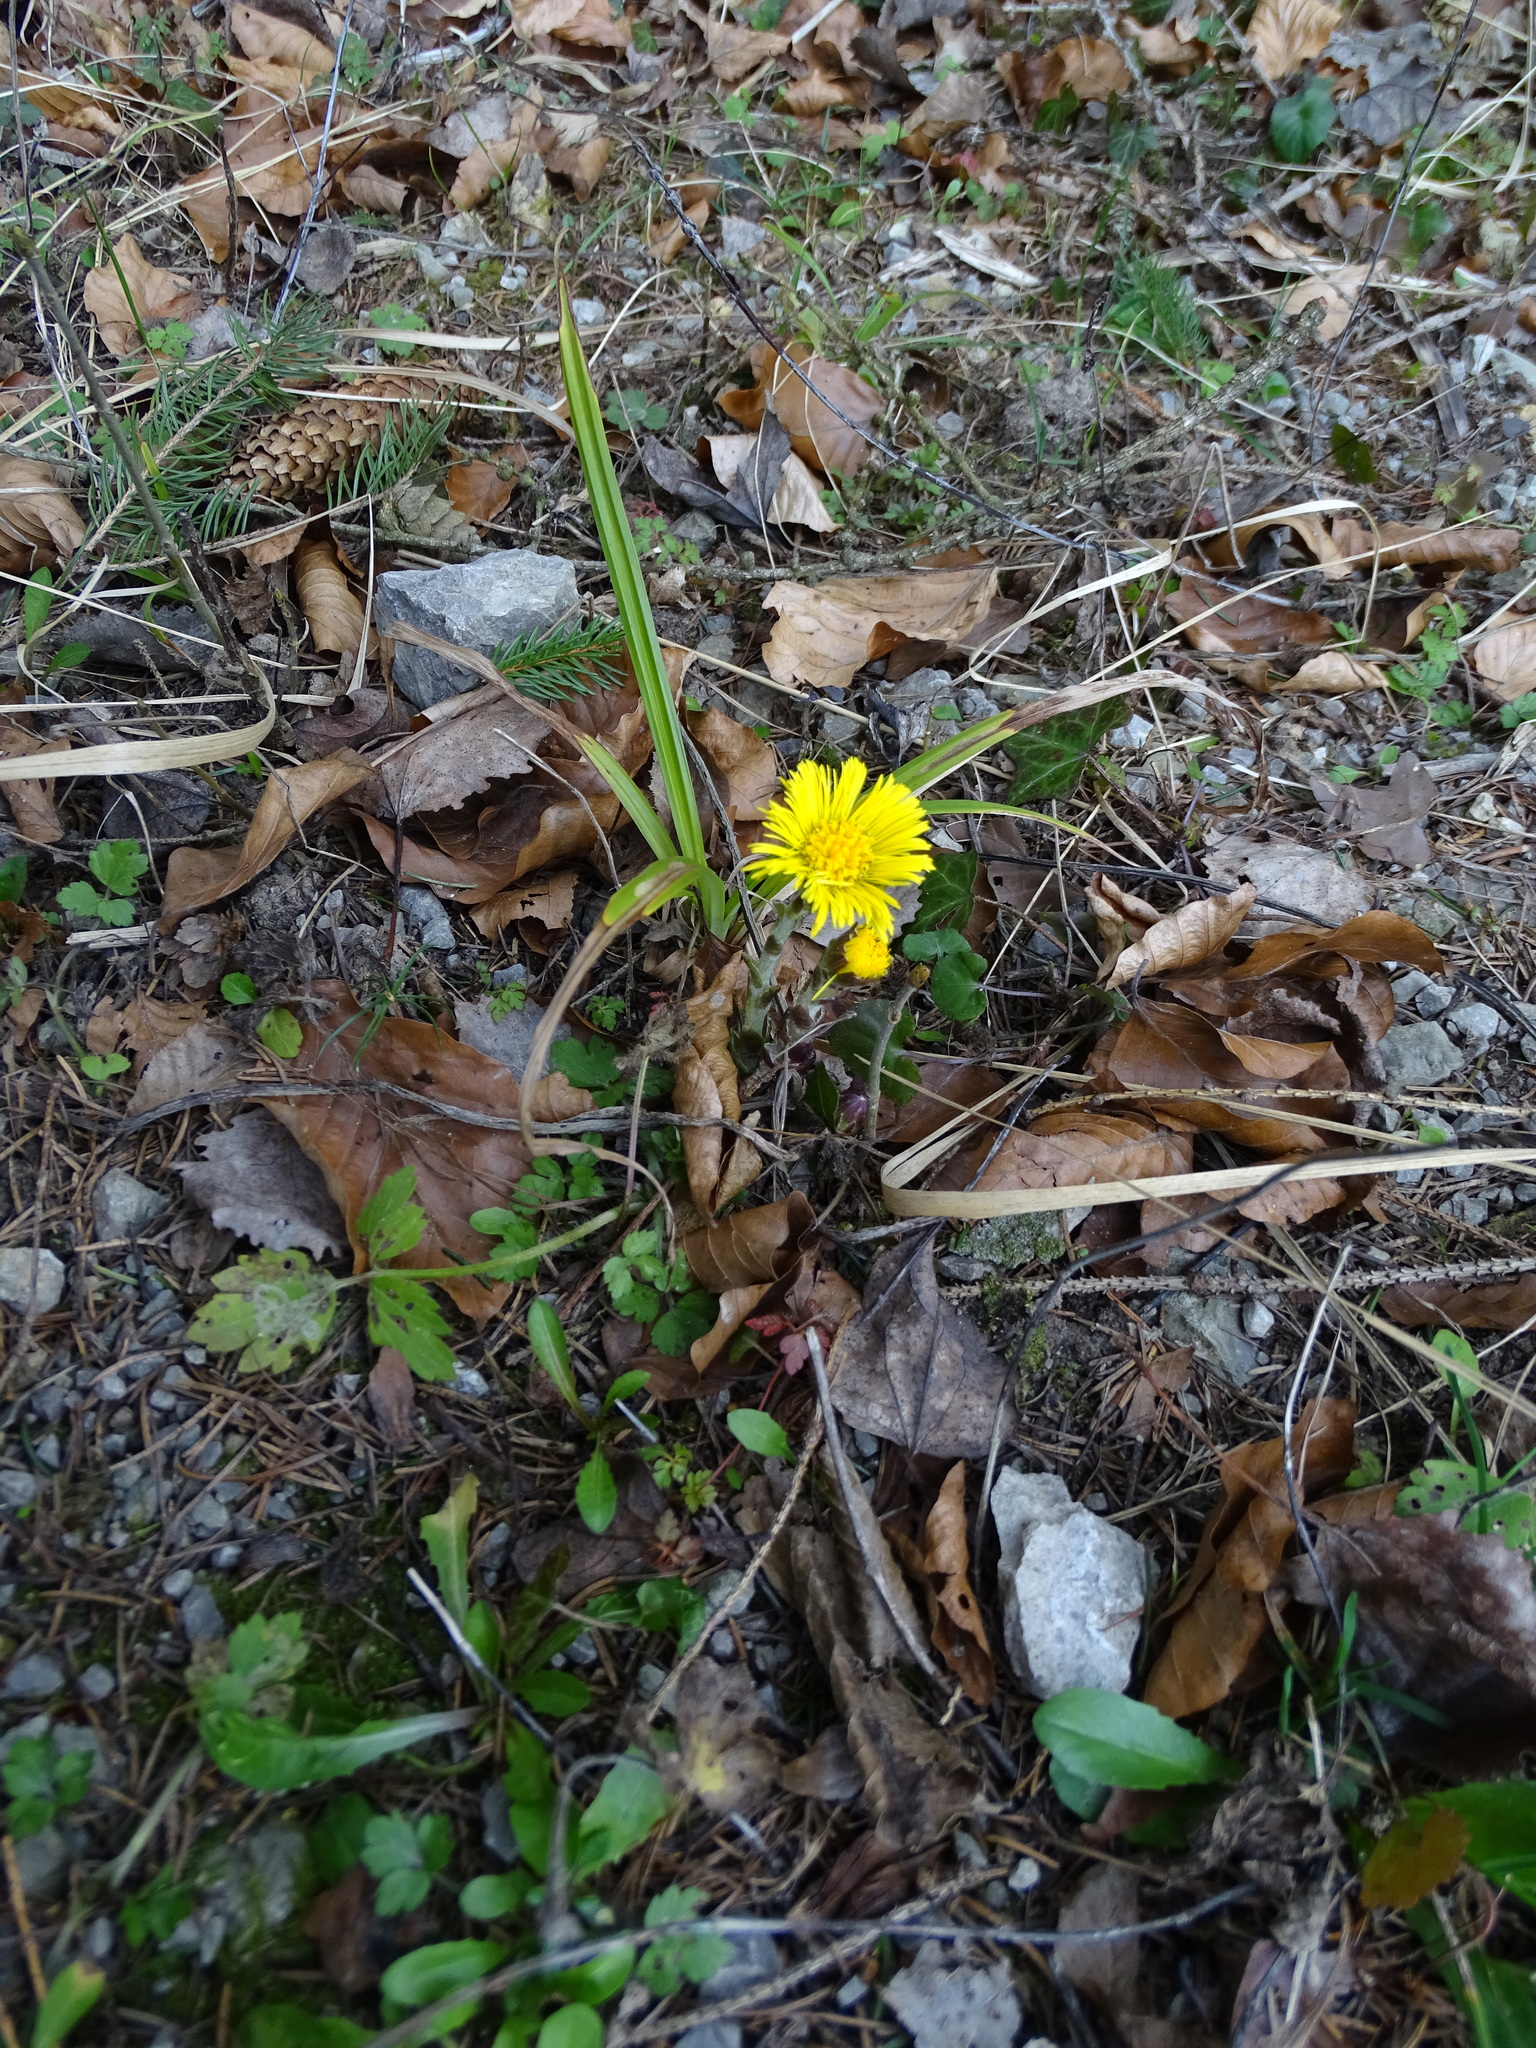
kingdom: Plantae
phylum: Tracheophyta
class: Magnoliopsida
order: Asterales
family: Asteraceae
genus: Tussilago
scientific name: Tussilago farfara
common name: Coltsfoot
